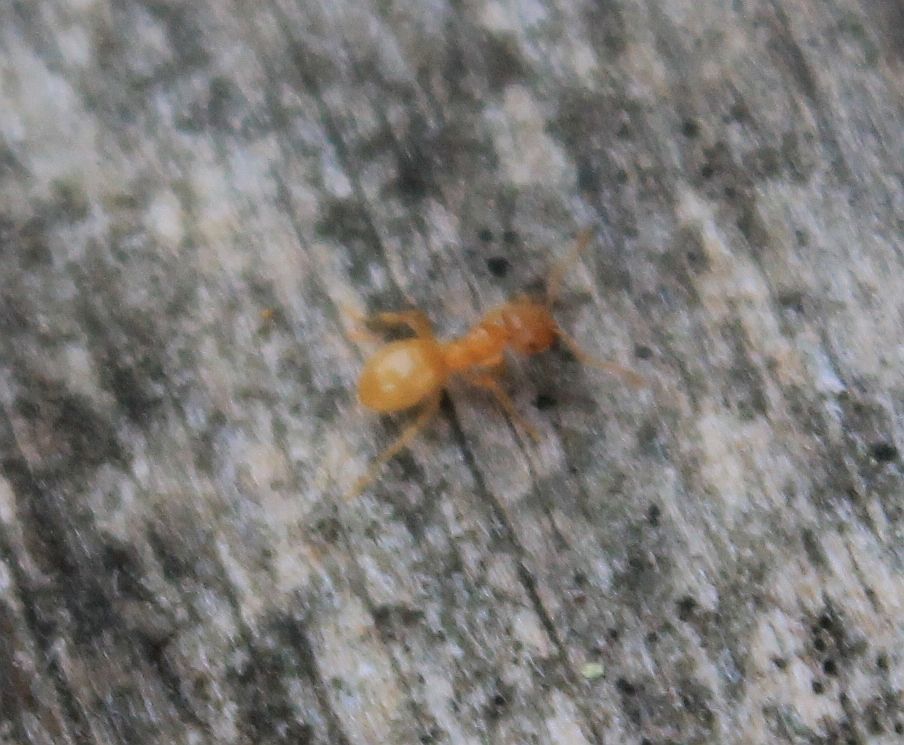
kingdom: Animalia
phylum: Arthropoda
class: Insecta
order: Hymenoptera
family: Formicidae
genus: Lasius
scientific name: Lasius
